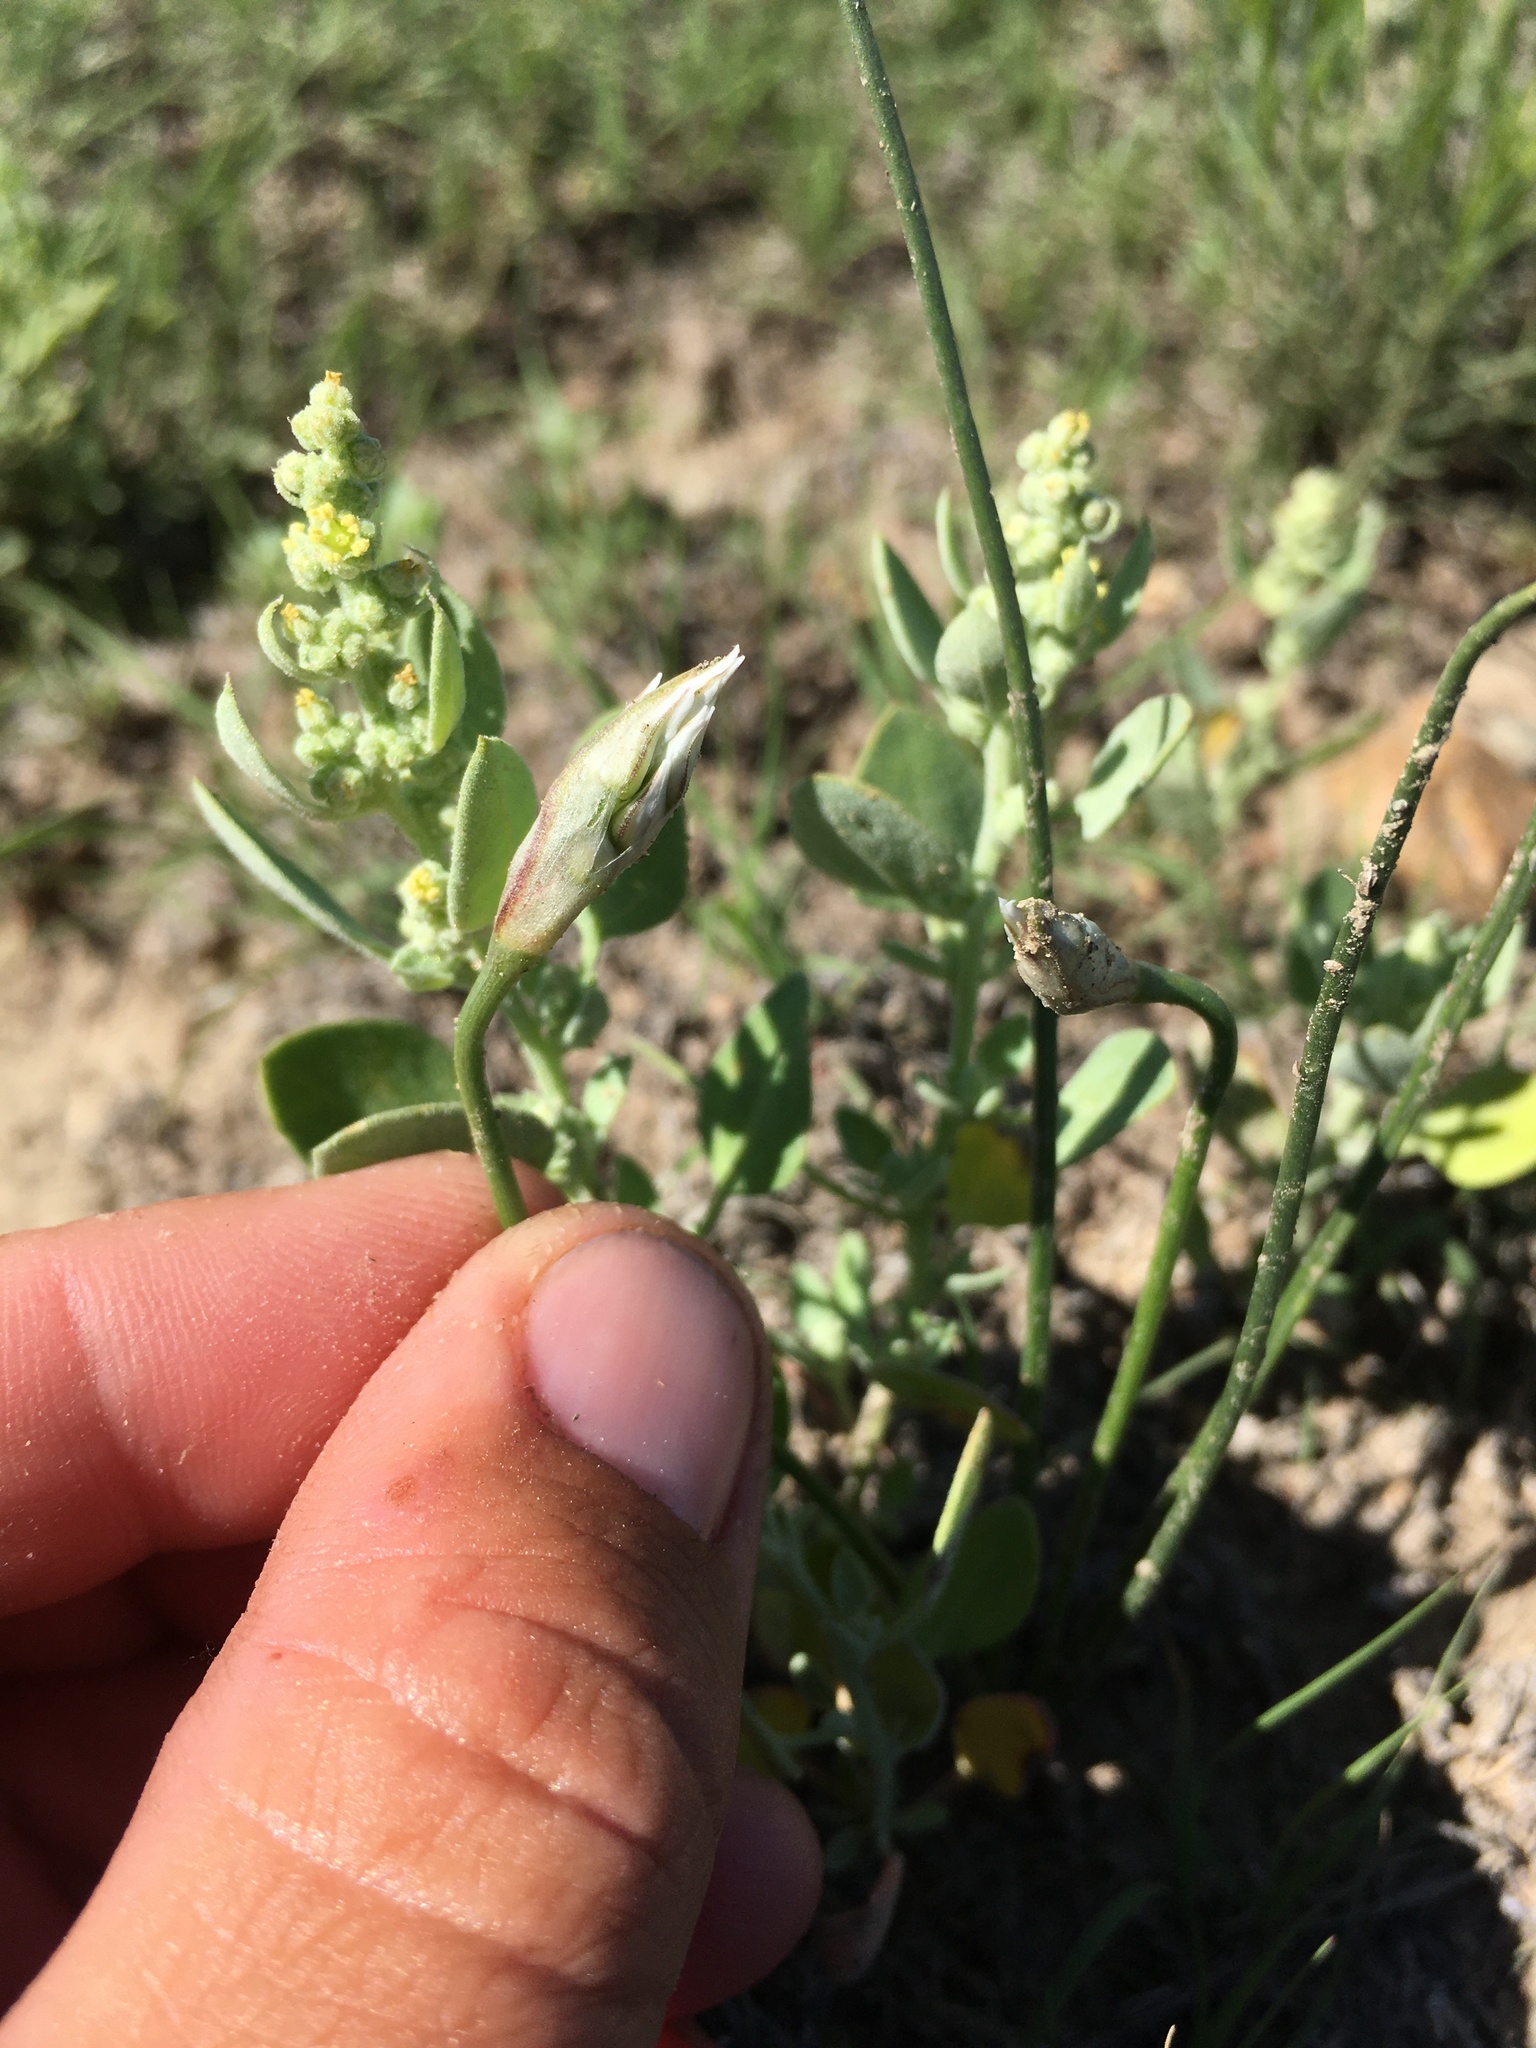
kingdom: Plantae
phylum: Tracheophyta
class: Liliopsida
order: Asparagales
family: Amaryllidaceae
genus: Allium
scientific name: Allium textile
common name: Prairie onion
